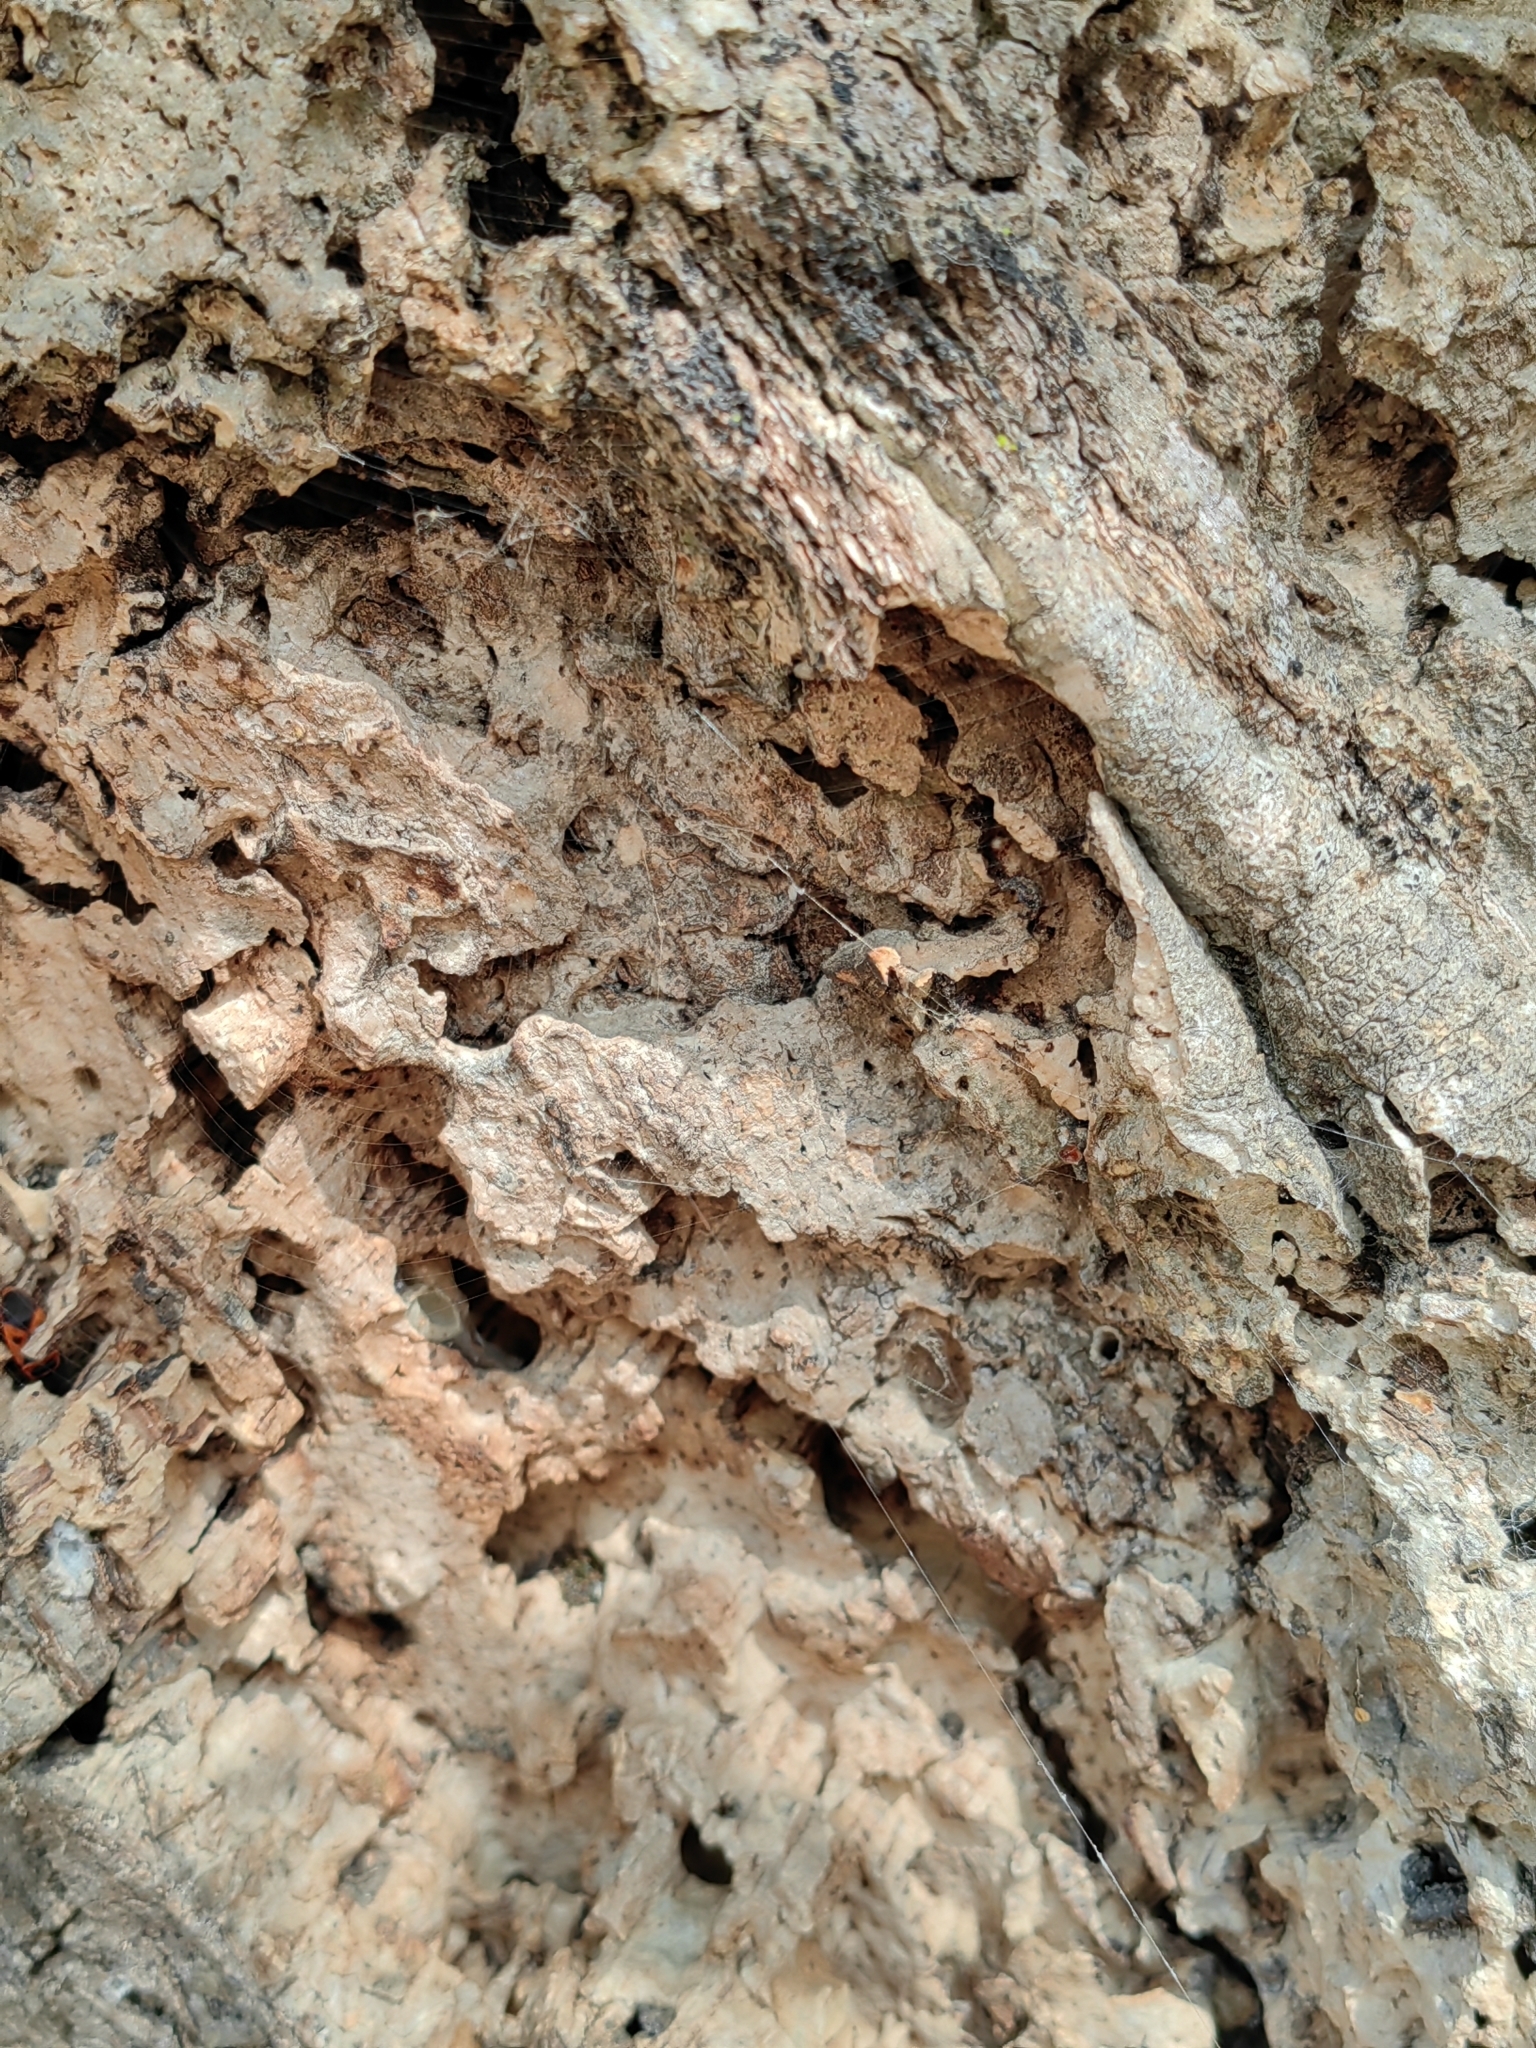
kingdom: Plantae
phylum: Tracheophyta
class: Magnoliopsida
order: Fagales
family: Fagaceae
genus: Quercus
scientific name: Quercus suber
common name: Cork oak
